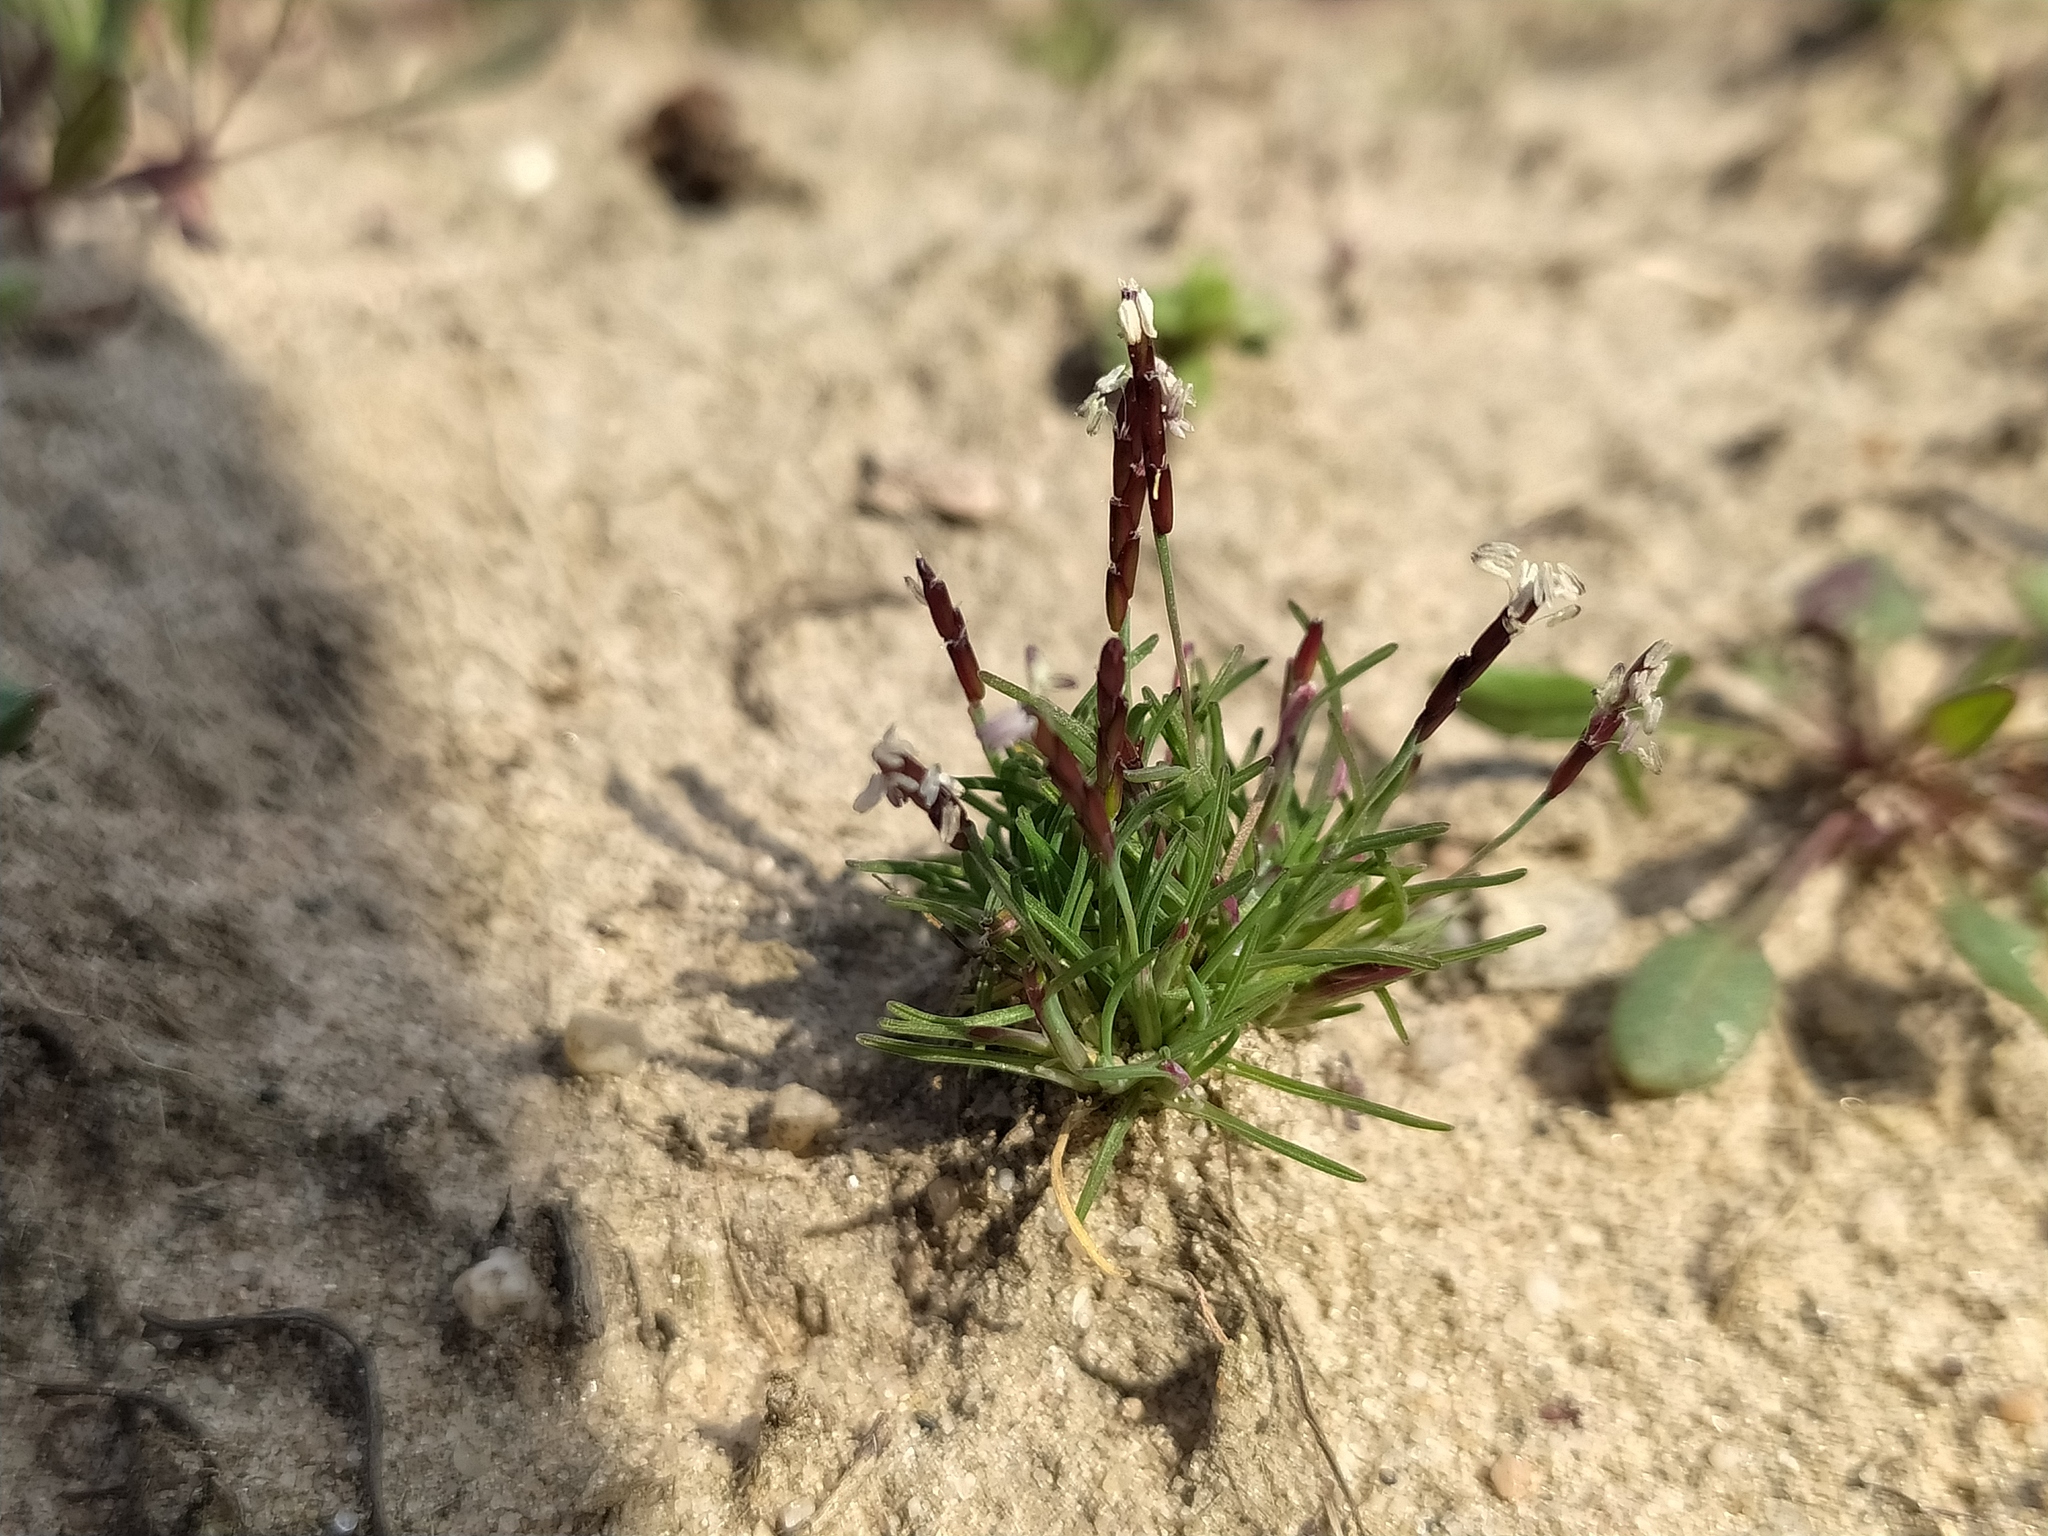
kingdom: Plantae
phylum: Tracheophyta
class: Liliopsida
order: Poales
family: Poaceae
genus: Mibora
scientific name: Mibora minima
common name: Early sand-grass
